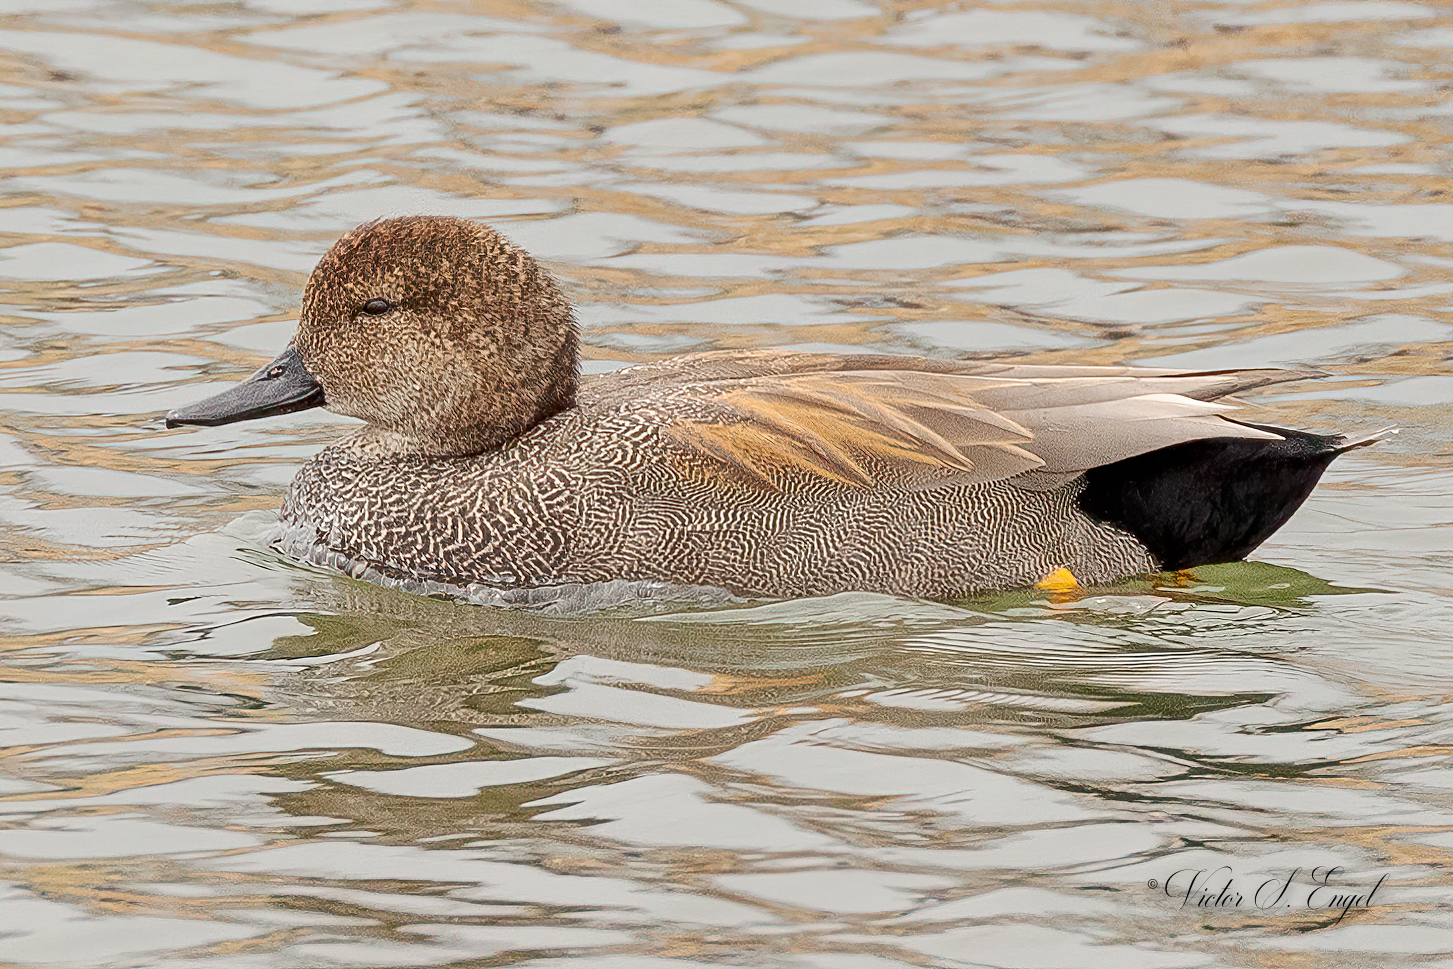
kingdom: Animalia
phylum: Chordata
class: Aves
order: Anseriformes
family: Anatidae
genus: Mareca
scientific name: Mareca strepera
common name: Gadwall
